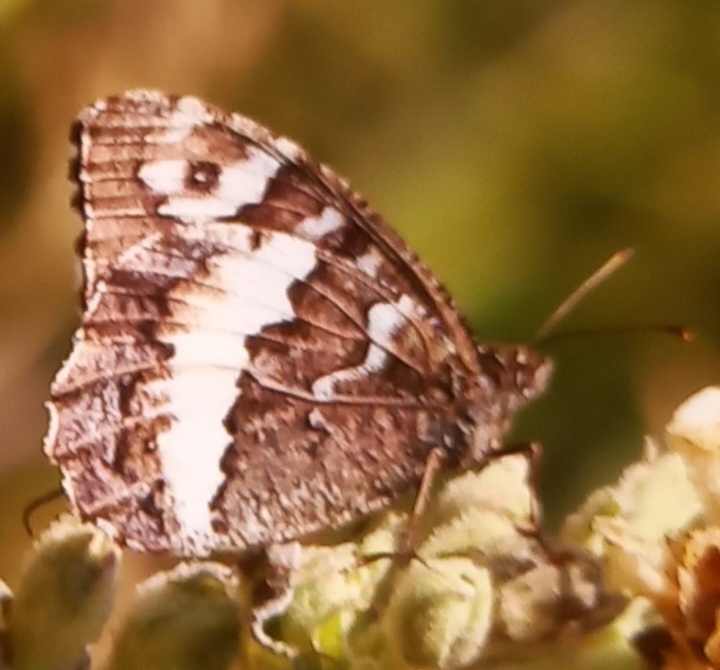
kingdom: Animalia
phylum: Arthropoda
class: Insecta
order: Lepidoptera
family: Lycaenidae
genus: Loweia
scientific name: Loweia tityrus
